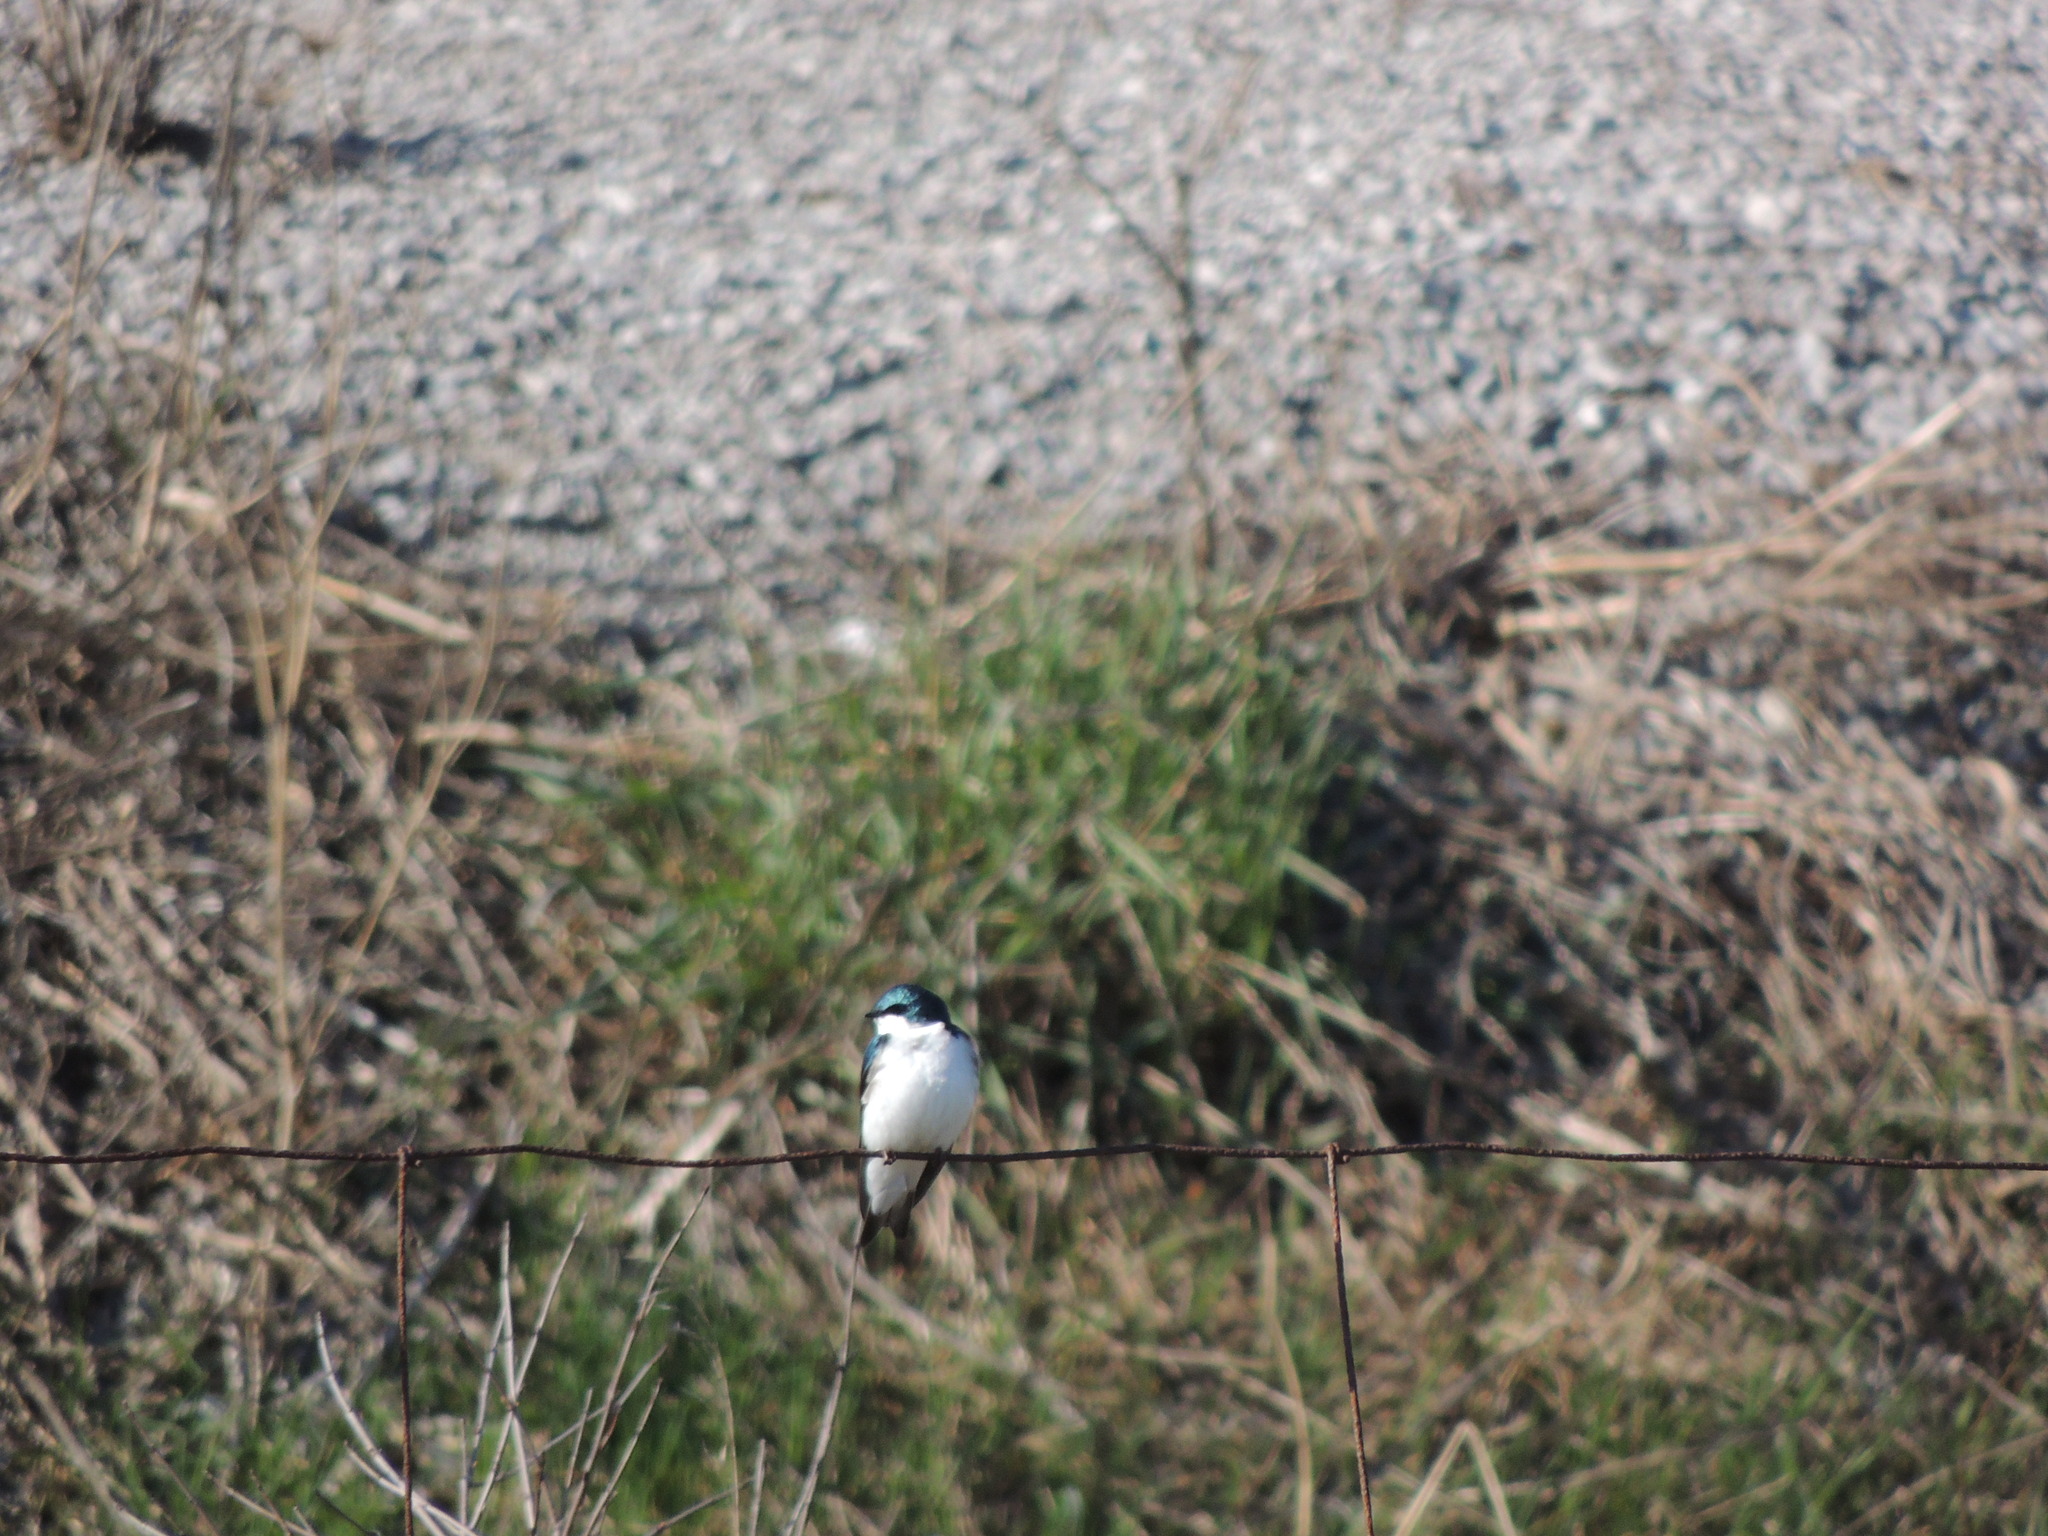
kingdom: Animalia
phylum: Chordata
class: Aves
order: Passeriformes
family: Hirundinidae
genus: Tachycineta
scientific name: Tachycineta bicolor
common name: Tree swallow
